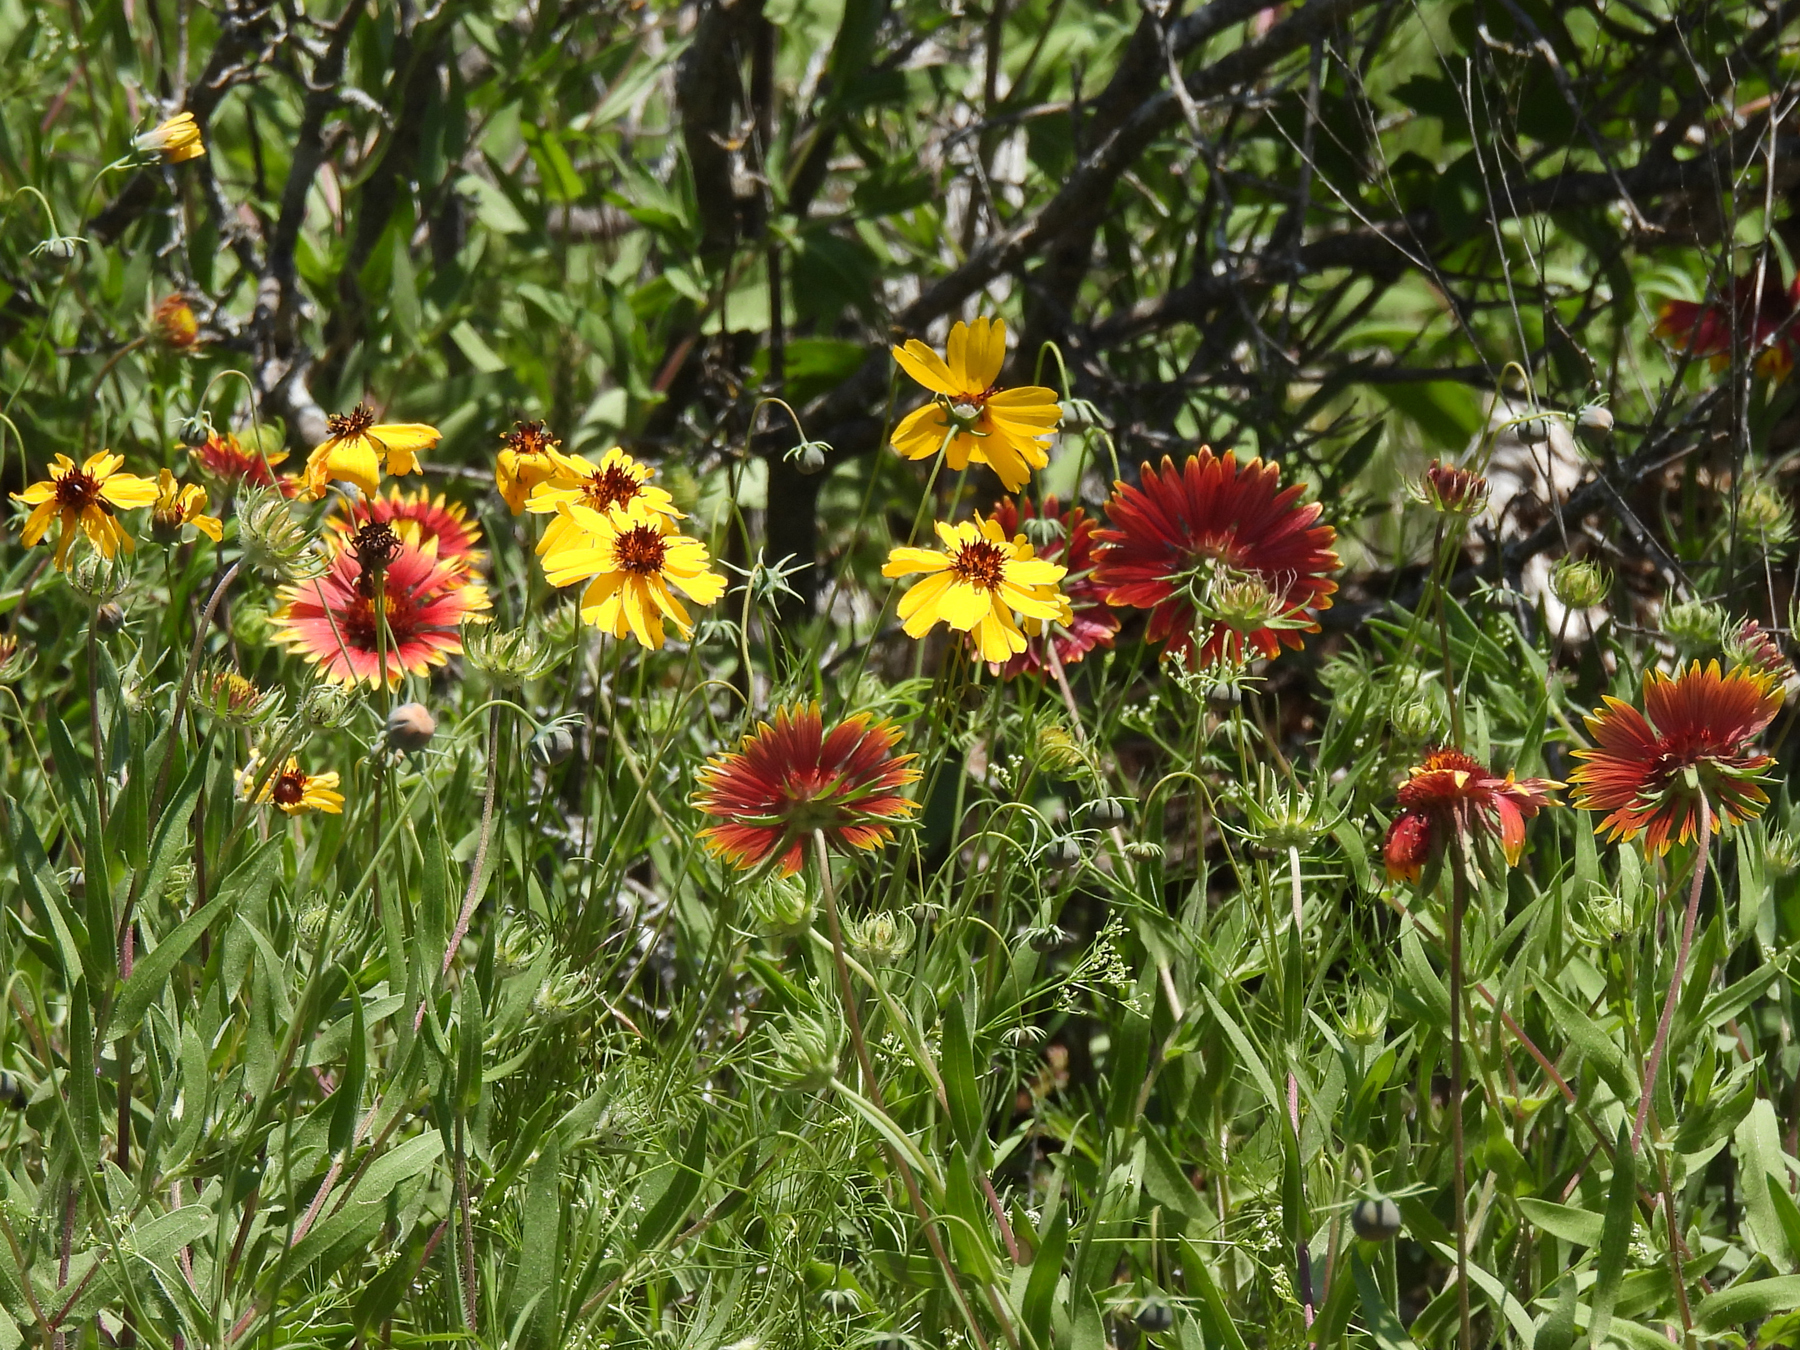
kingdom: Plantae
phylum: Tracheophyta
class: Magnoliopsida
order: Asterales
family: Asteraceae
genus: Gaillardia
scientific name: Gaillardia pulchella
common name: Firewheel
